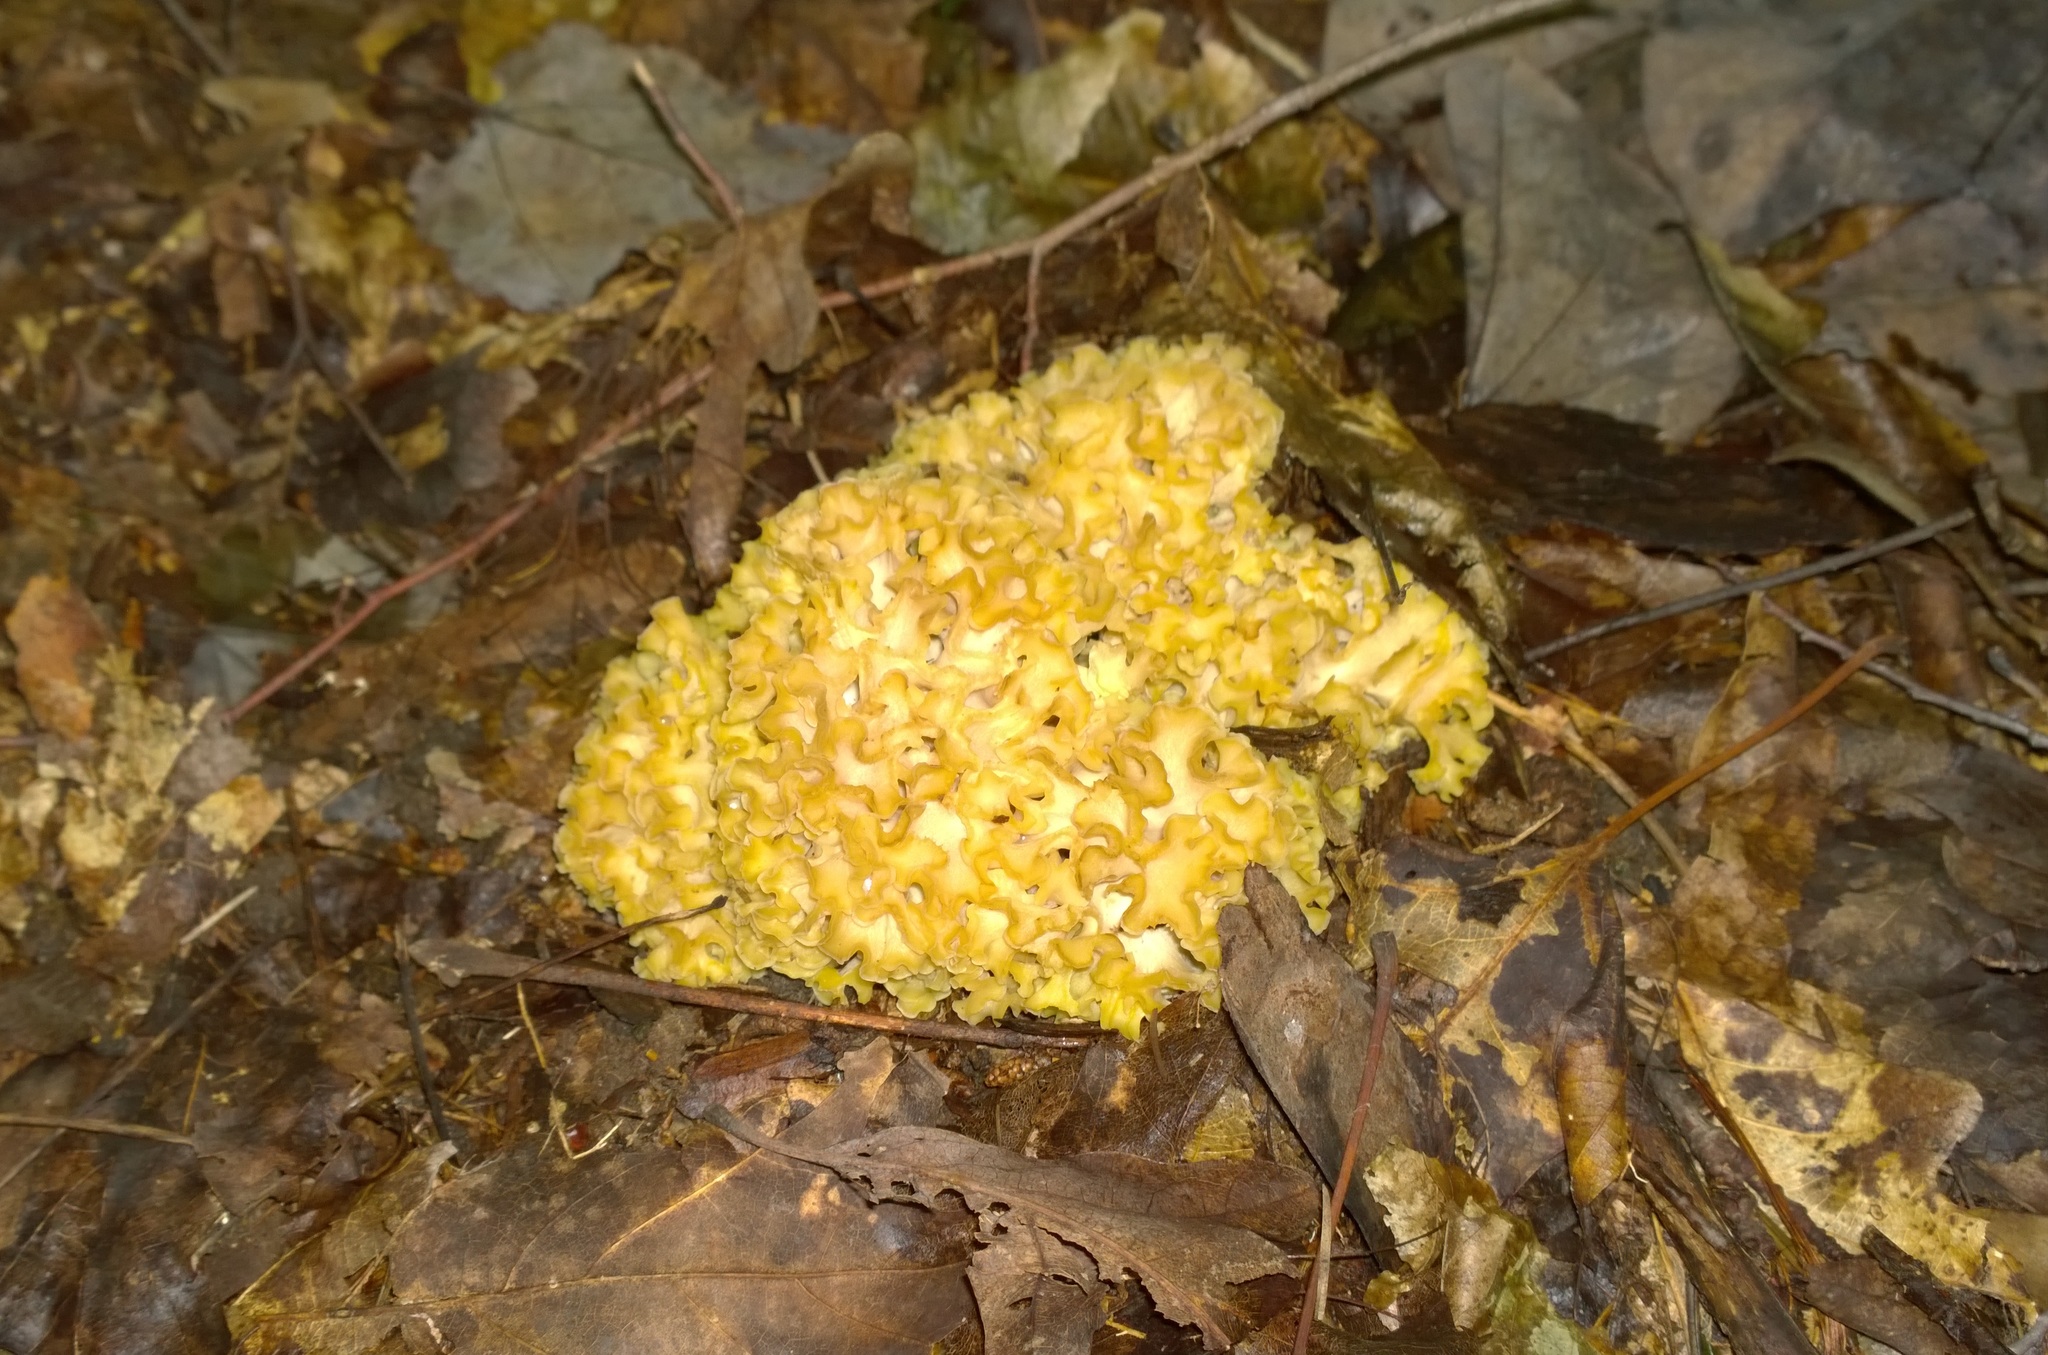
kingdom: Fungi
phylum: Basidiomycota
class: Agaricomycetes
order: Polyporales
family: Sparassidaceae
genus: Sparassis
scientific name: Sparassis americana
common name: American cauliflower mushroom
